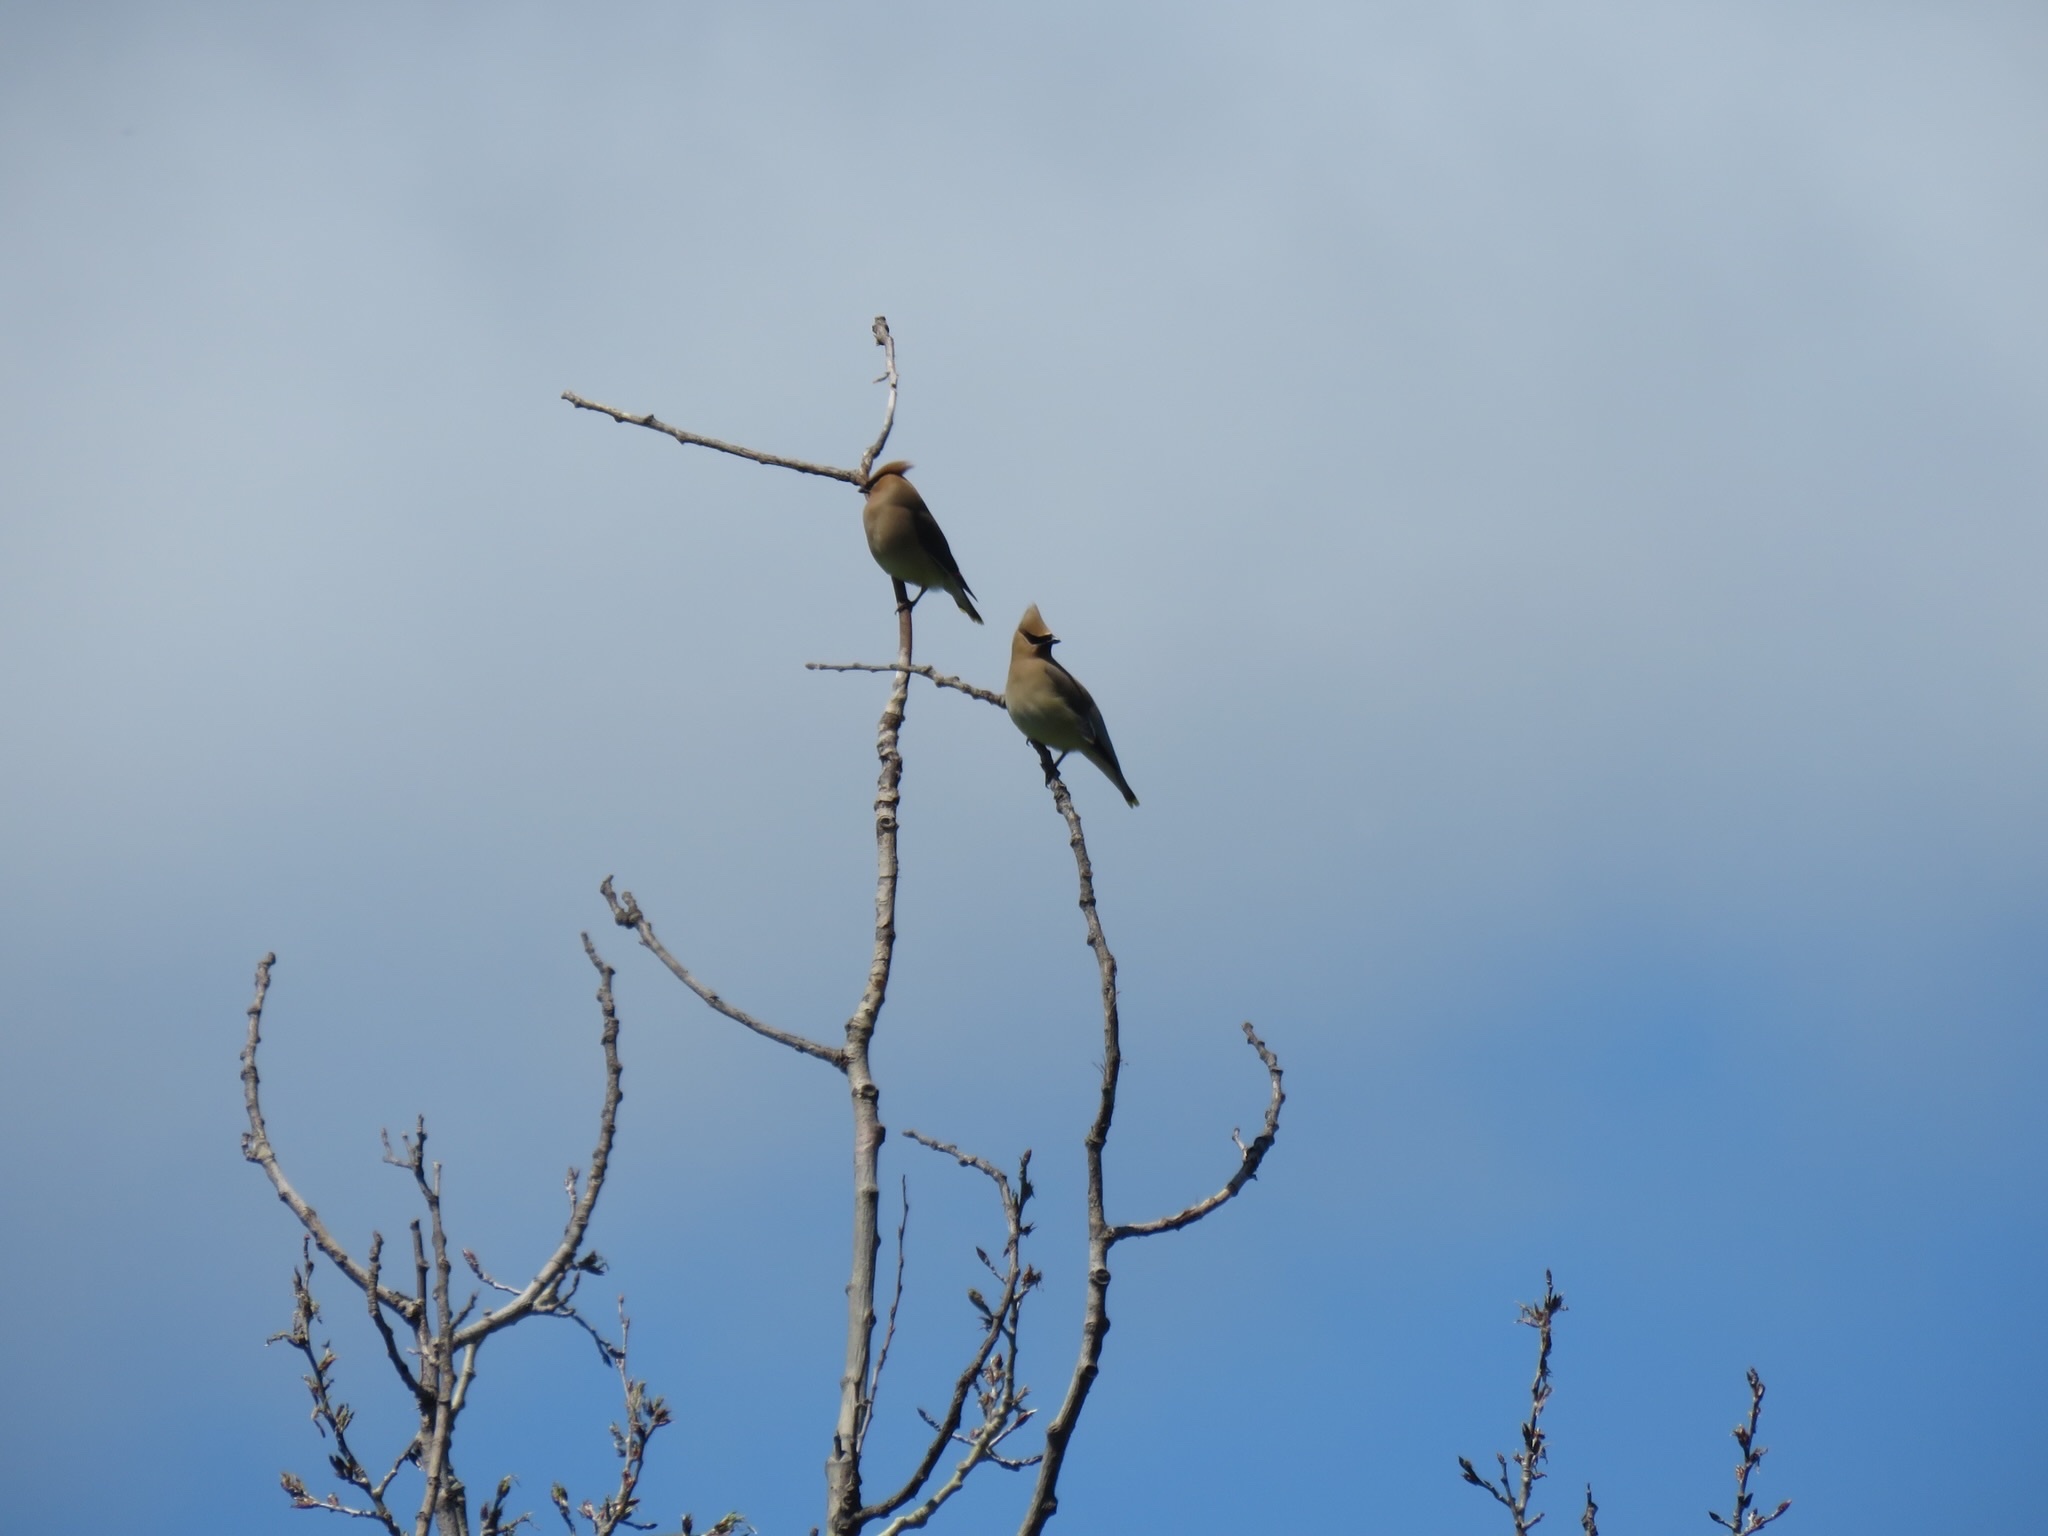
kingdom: Animalia
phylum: Chordata
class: Aves
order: Passeriformes
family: Bombycillidae
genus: Bombycilla
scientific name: Bombycilla cedrorum
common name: Cedar waxwing
